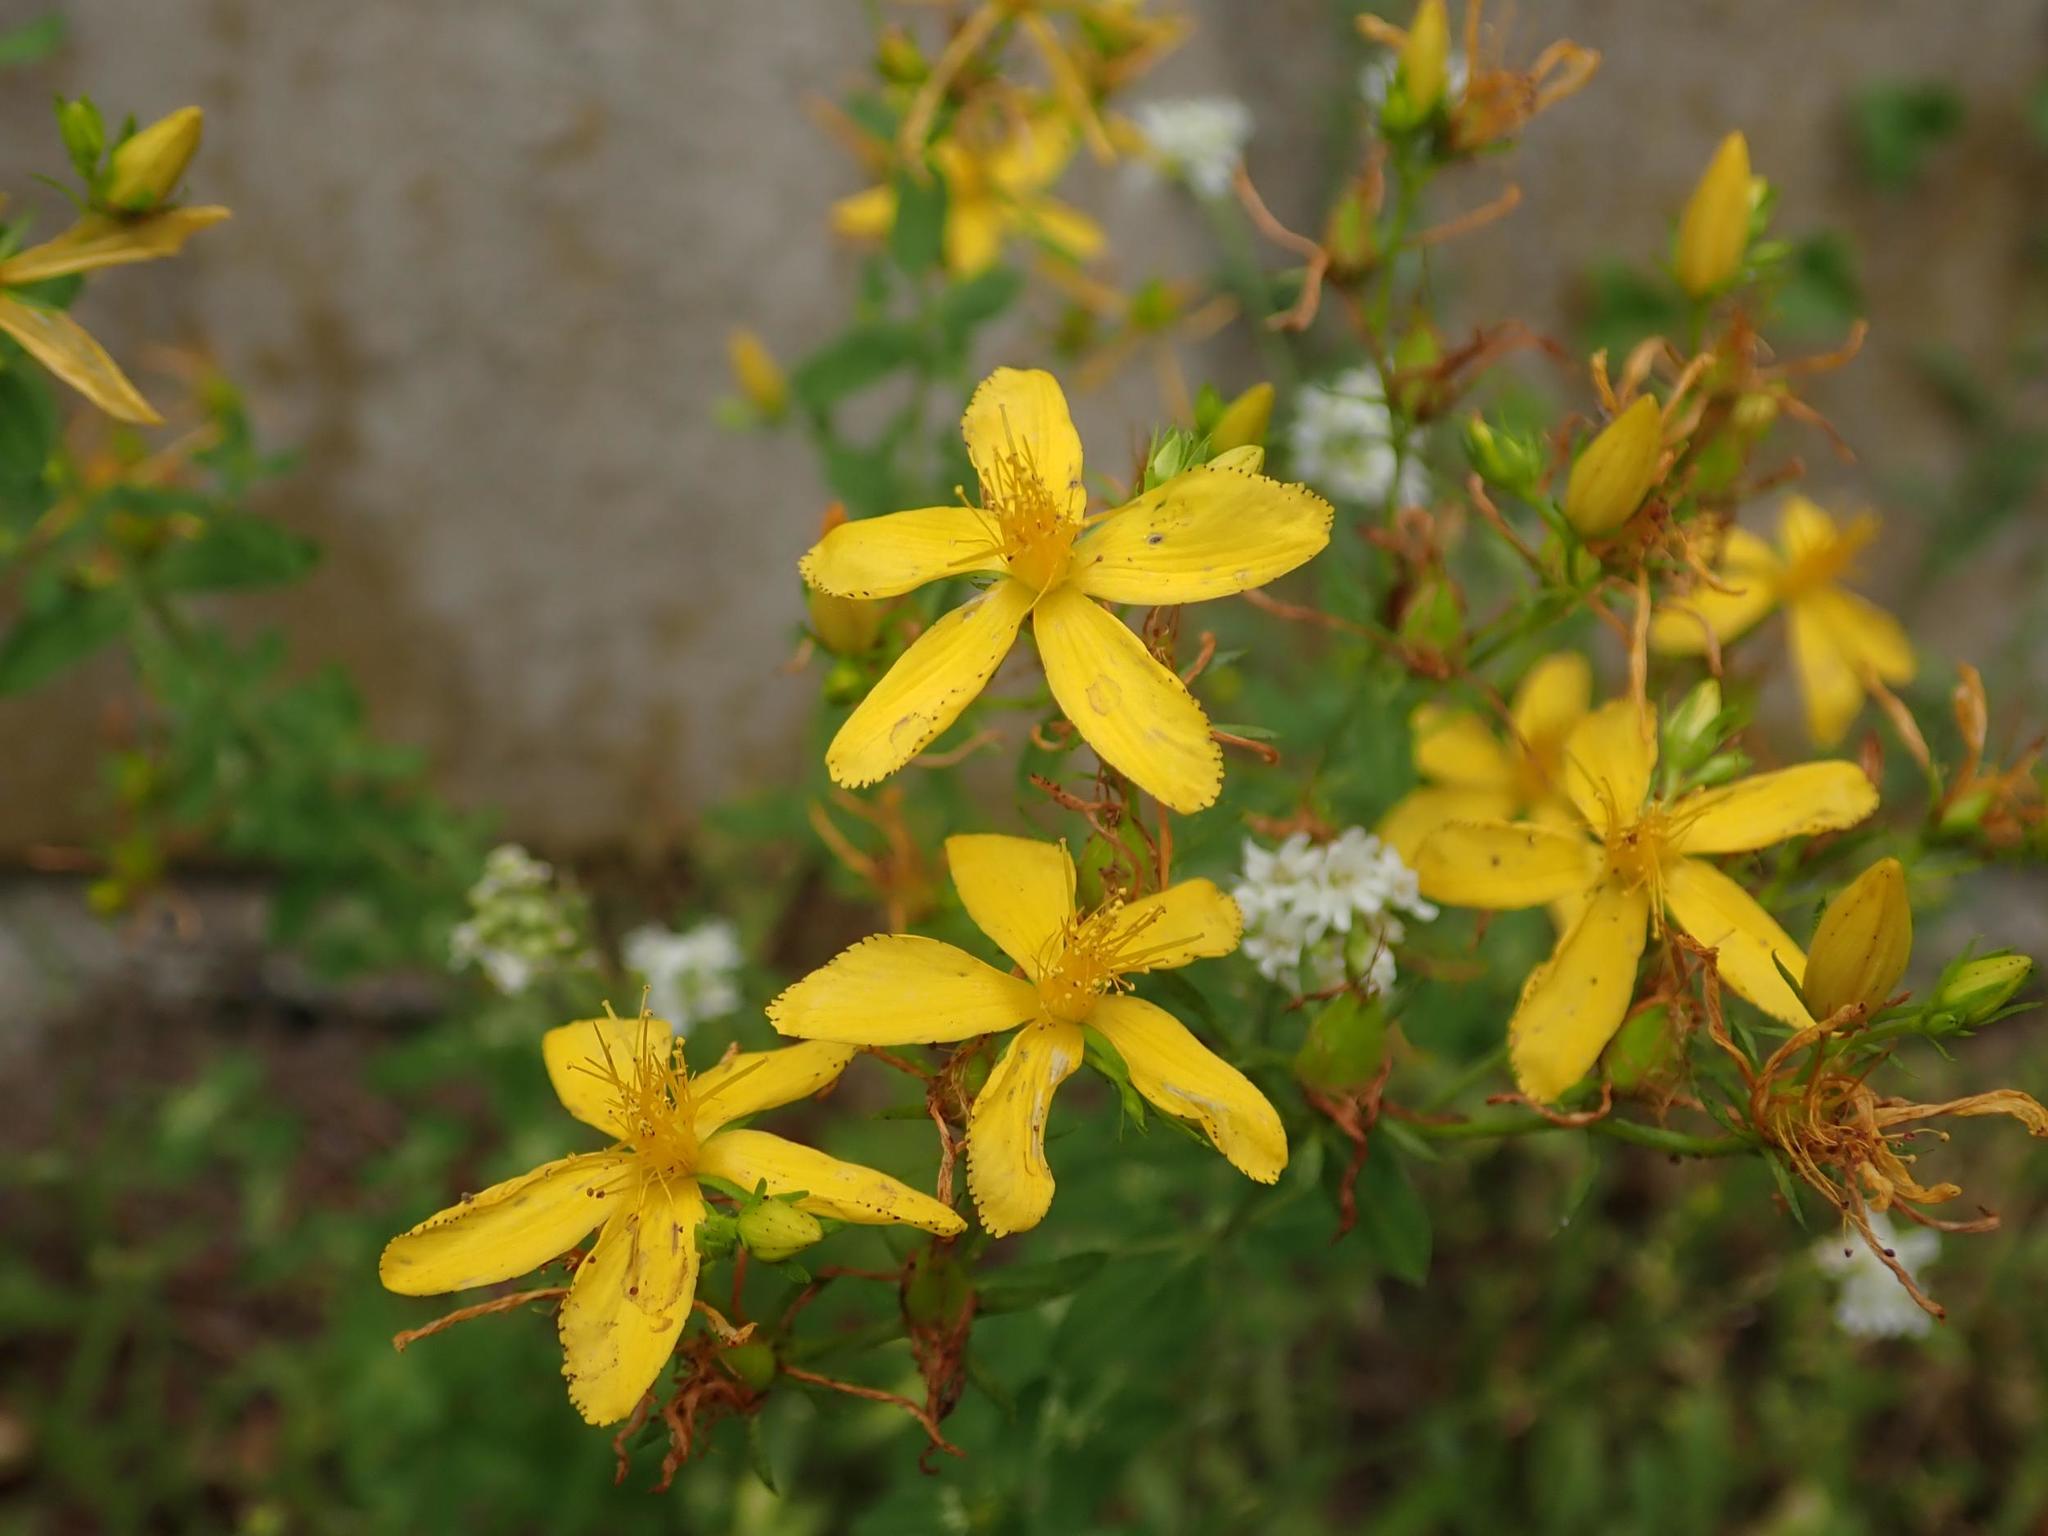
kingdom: Plantae
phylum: Tracheophyta
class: Magnoliopsida
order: Malpighiales
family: Hypericaceae
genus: Hypericum
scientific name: Hypericum perforatum
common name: Common st. johnswort
